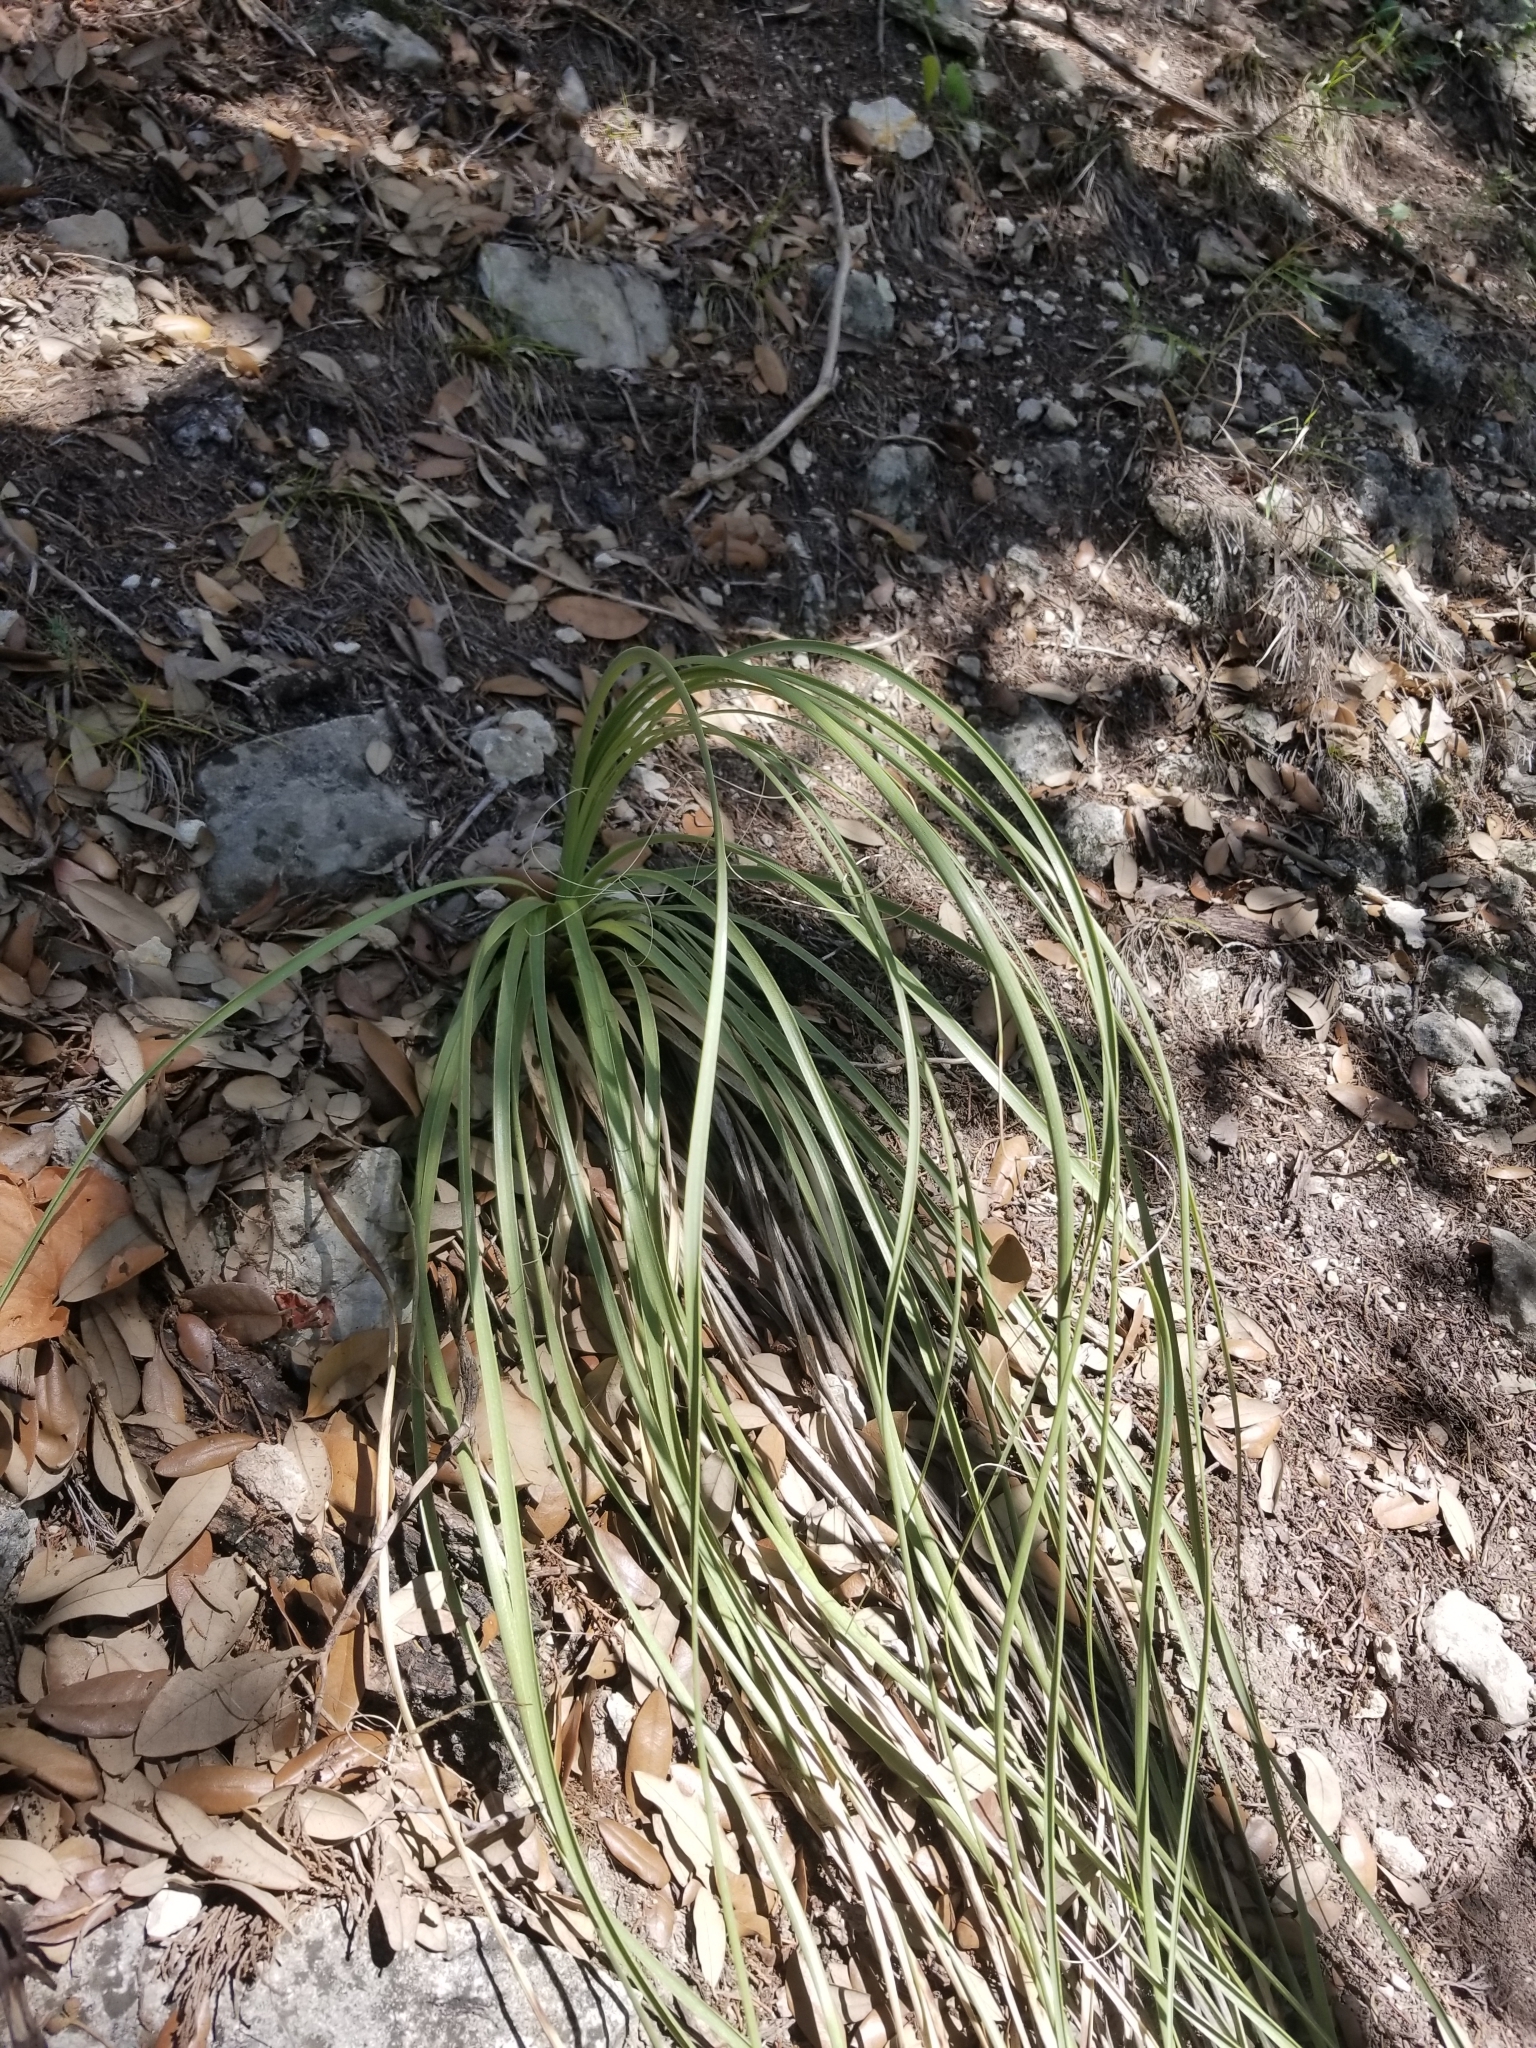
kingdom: Plantae
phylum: Tracheophyta
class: Liliopsida
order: Asparagales
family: Asparagaceae
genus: Nolina
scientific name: Nolina lindheimeriana
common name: Lindheimer's bear-grass
